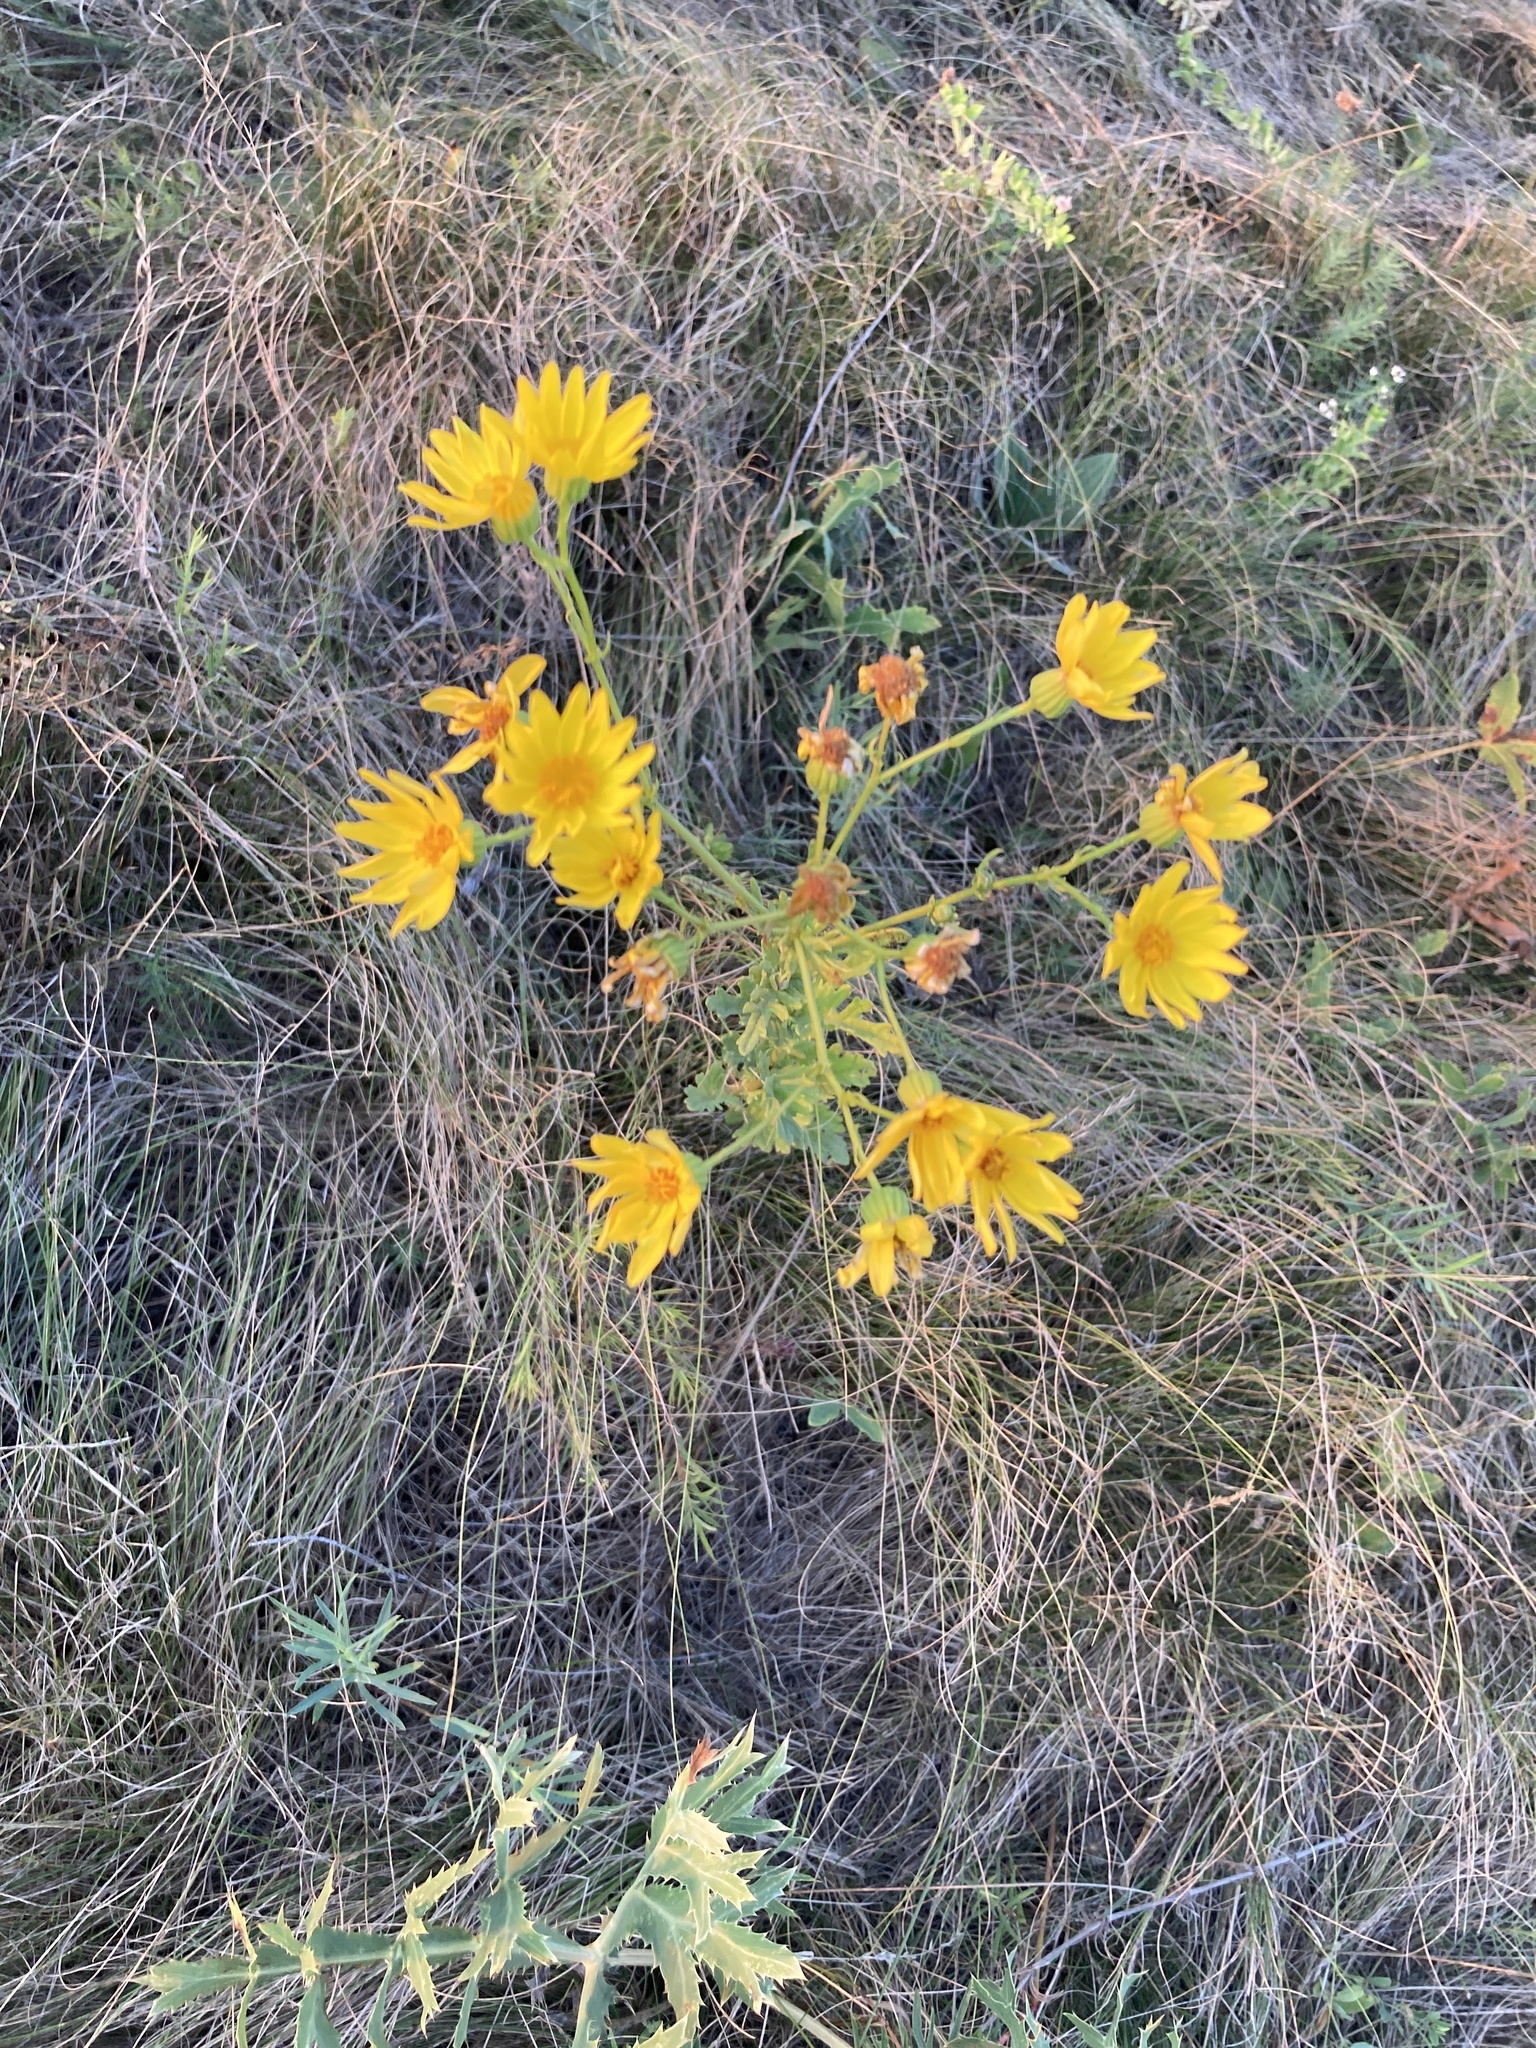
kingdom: Plantae
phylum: Tracheophyta
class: Magnoliopsida
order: Asterales
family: Asteraceae
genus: Hieracium
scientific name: Hieracium virosum
